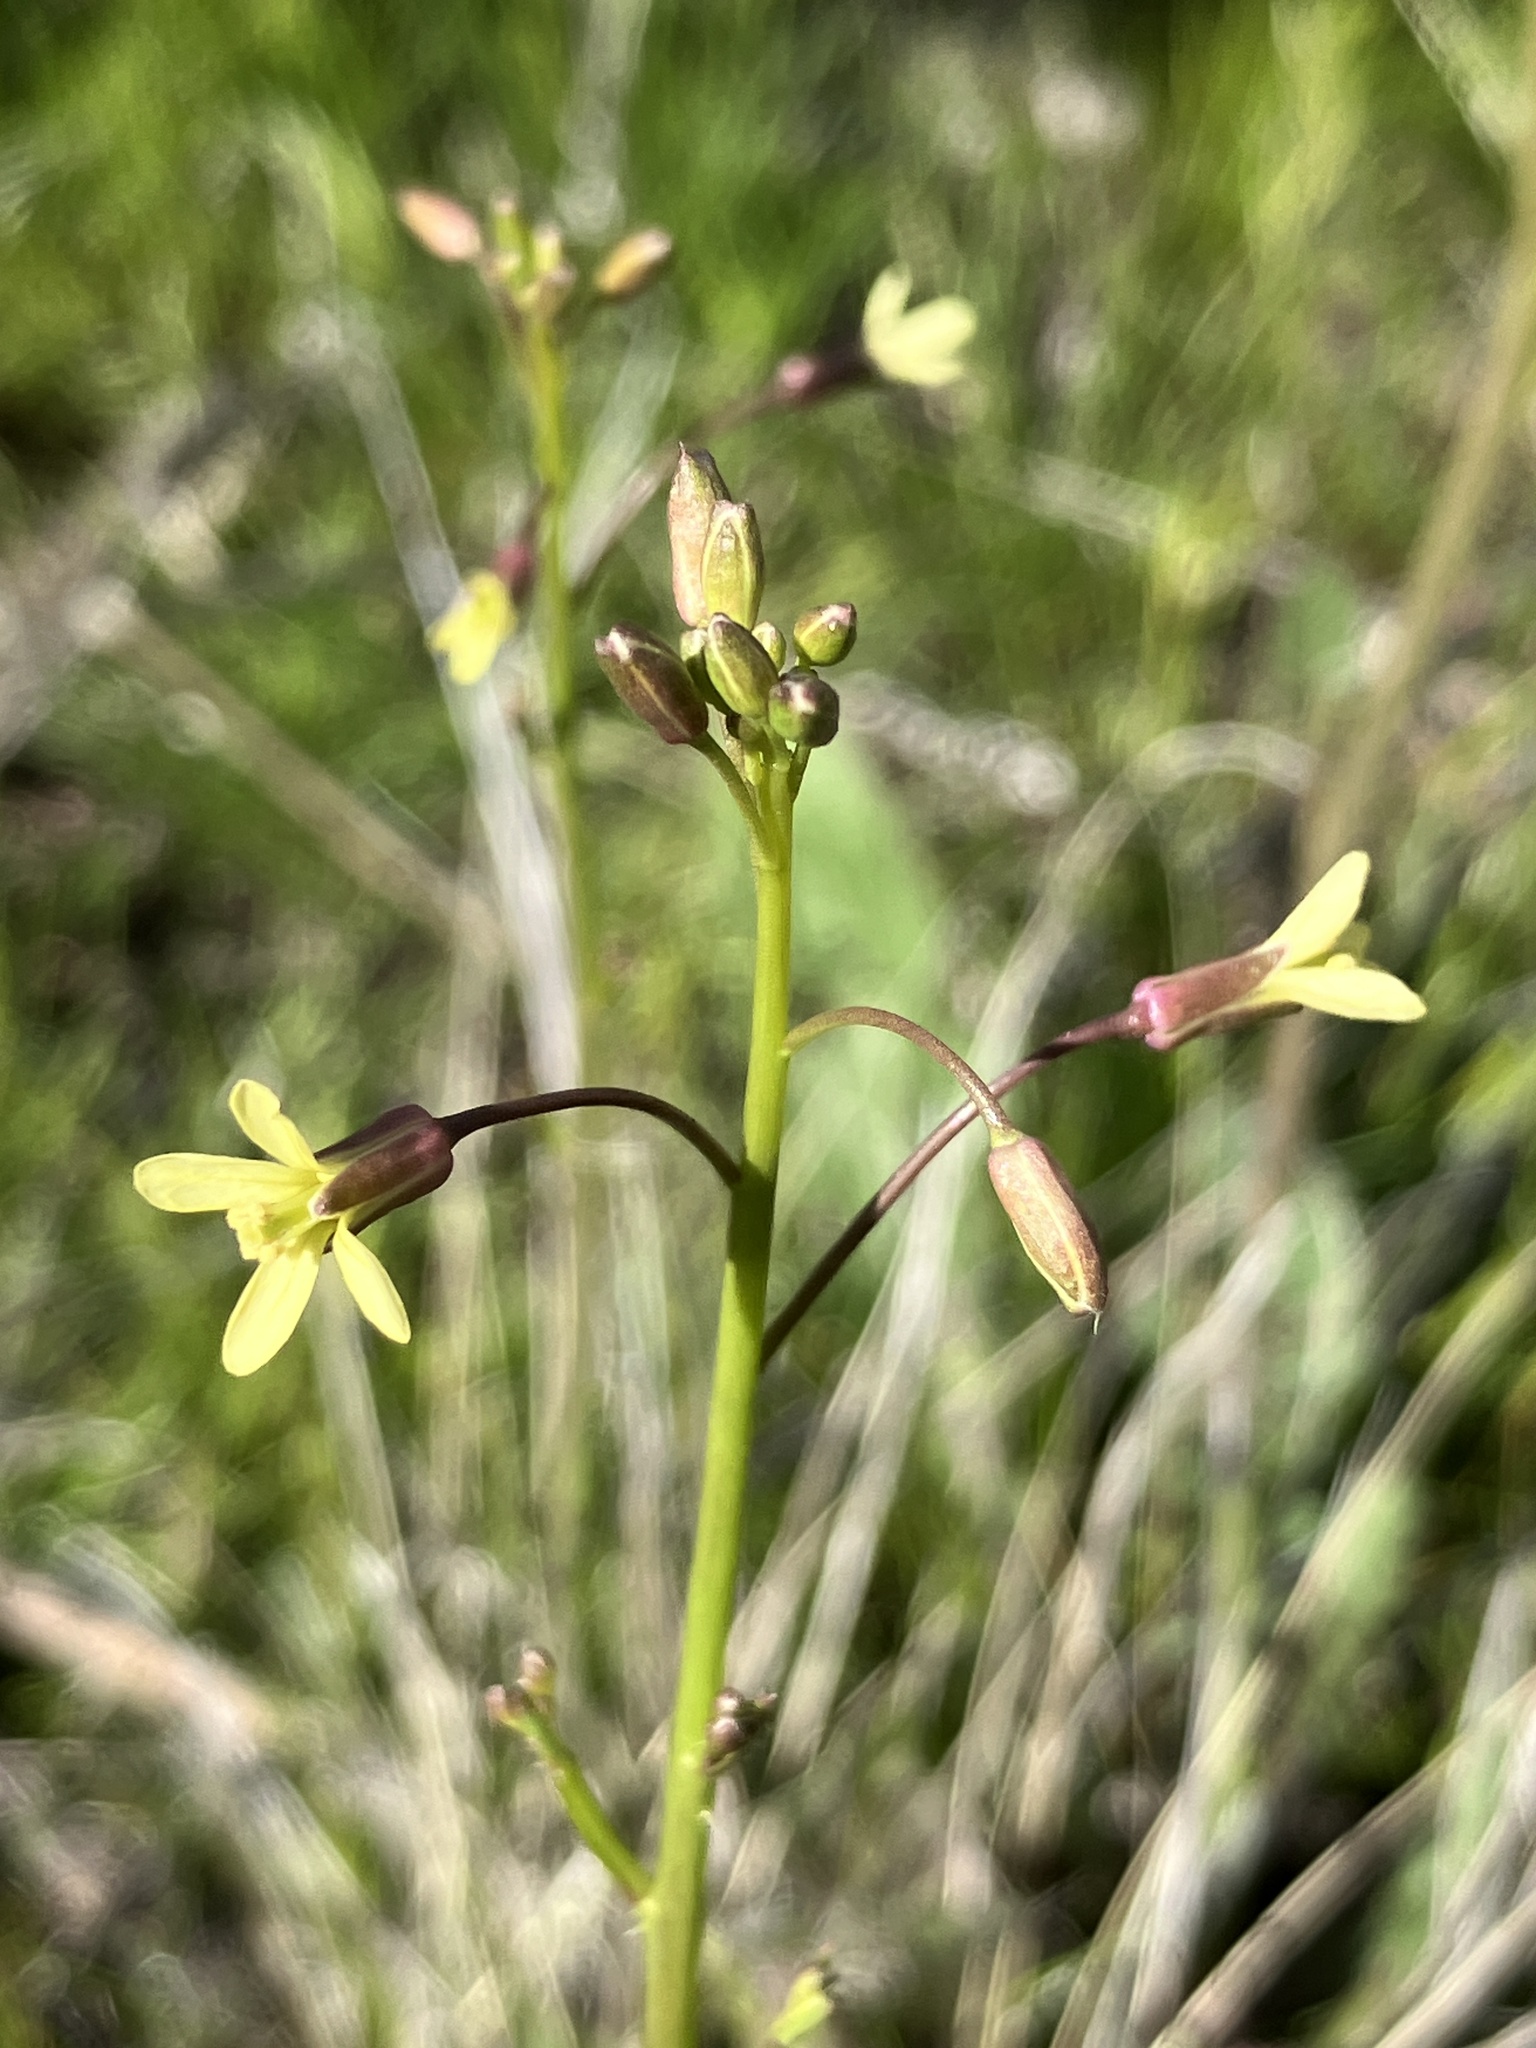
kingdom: Plantae
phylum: Tracheophyta
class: Magnoliopsida
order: Brassicales
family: Brassicaceae
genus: Brassica
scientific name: Brassica tournefortii
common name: Pale cabbage
